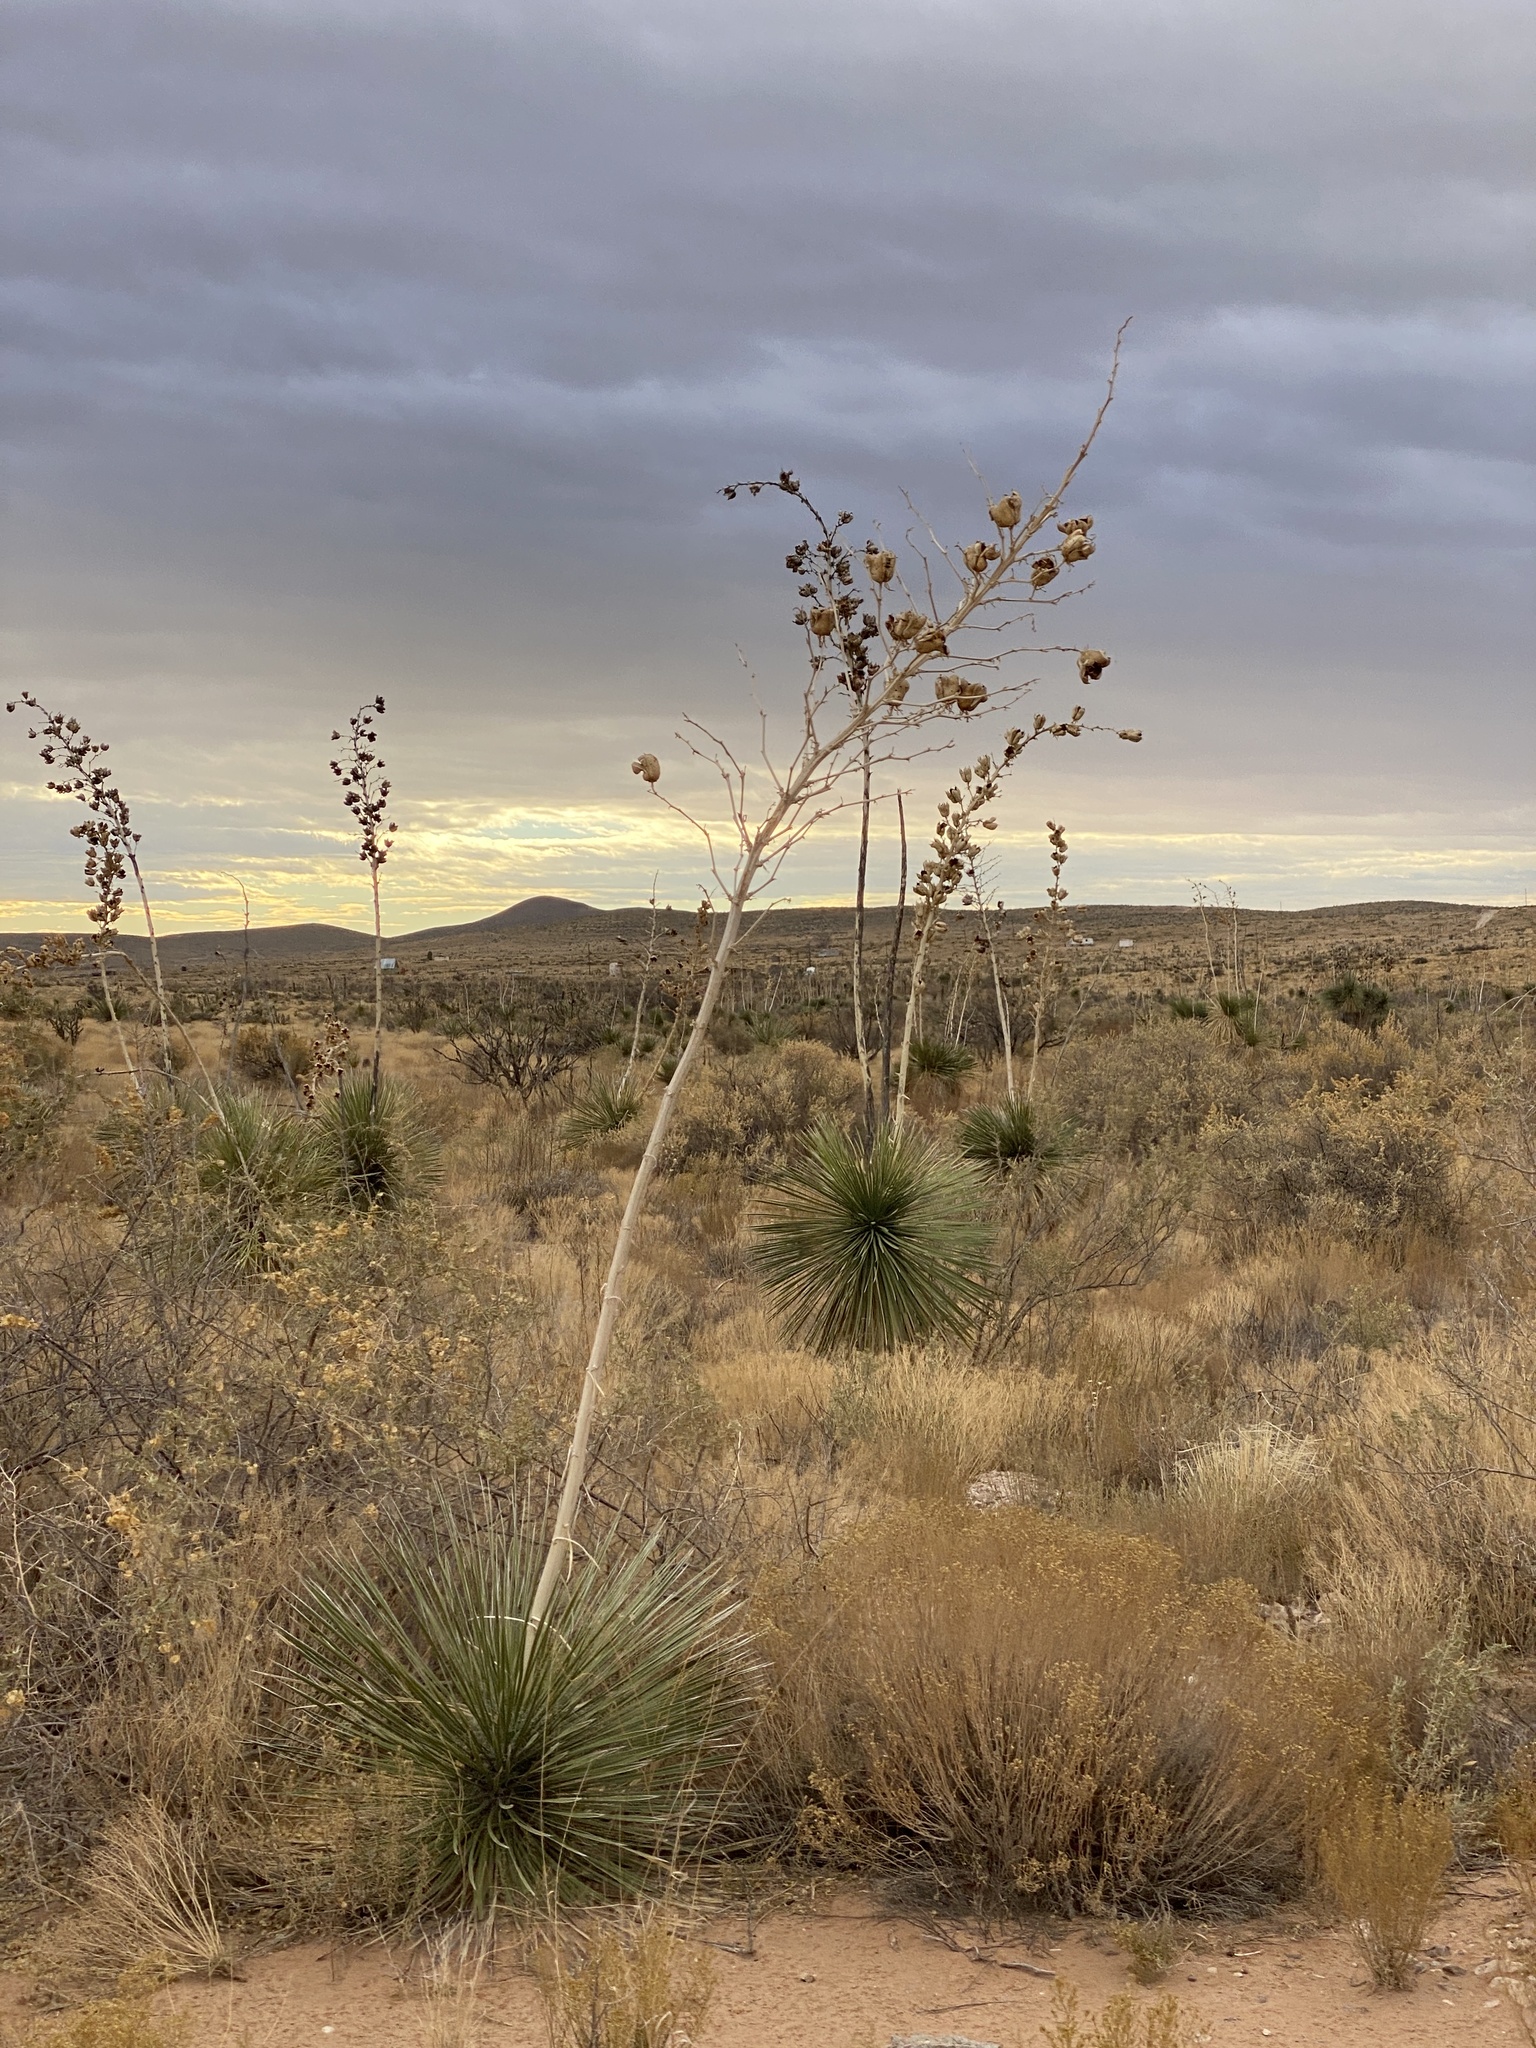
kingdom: Plantae
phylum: Tracheophyta
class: Liliopsida
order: Asparagales
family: Asparagaceae
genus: Yucca
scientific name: Yucca elata
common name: Palmella
